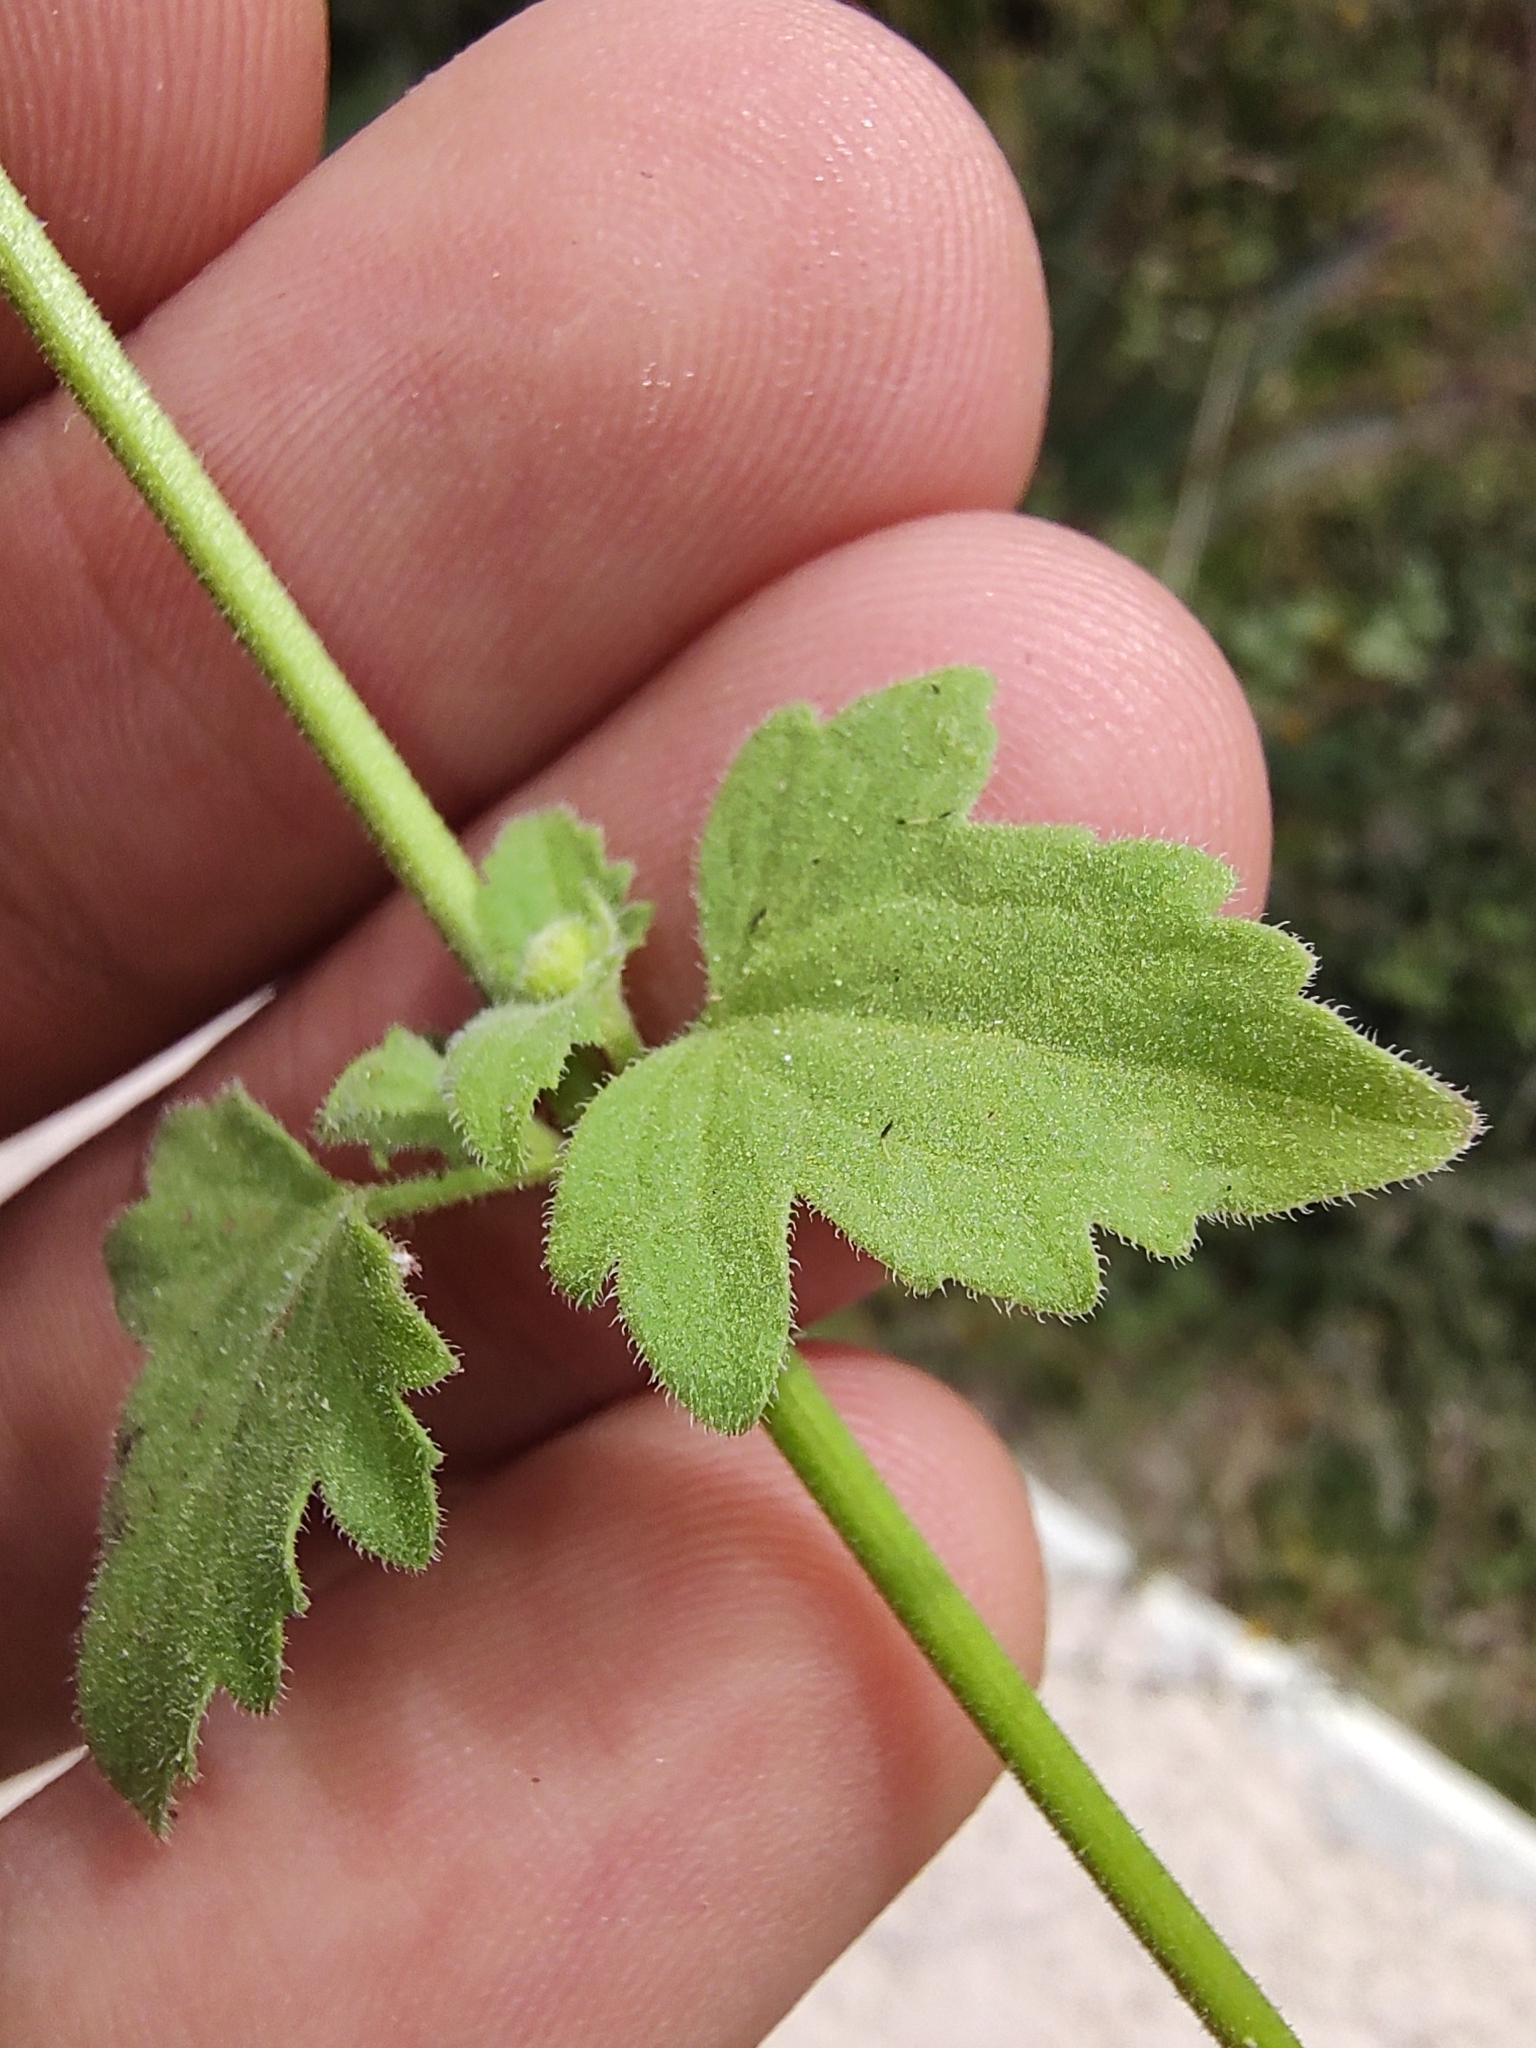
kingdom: Plantae
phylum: Tracheophyta
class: Magnoliopsida
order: Asterales
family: Asteraceae
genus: Galinsogeopsis
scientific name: Galinsogeopsis spilanthoides
